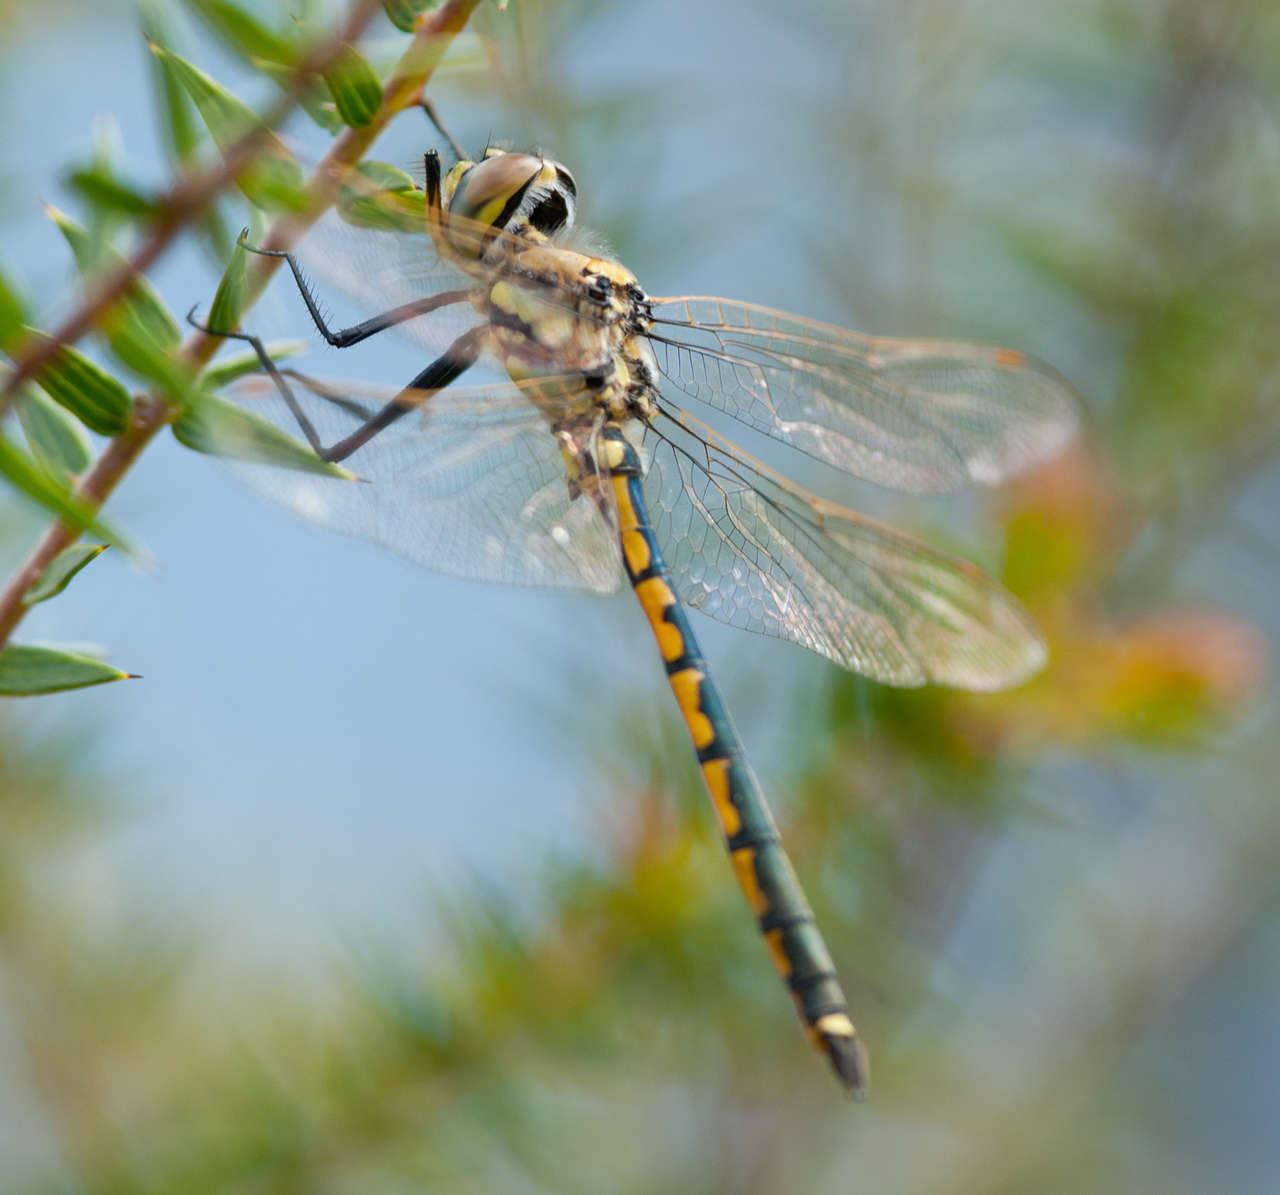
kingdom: Animalia
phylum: Arthropoda
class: Insecta
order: Odonata
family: Corduliidae
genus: Hemicordulia
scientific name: Hemicordulia tau
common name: Tau emerald
